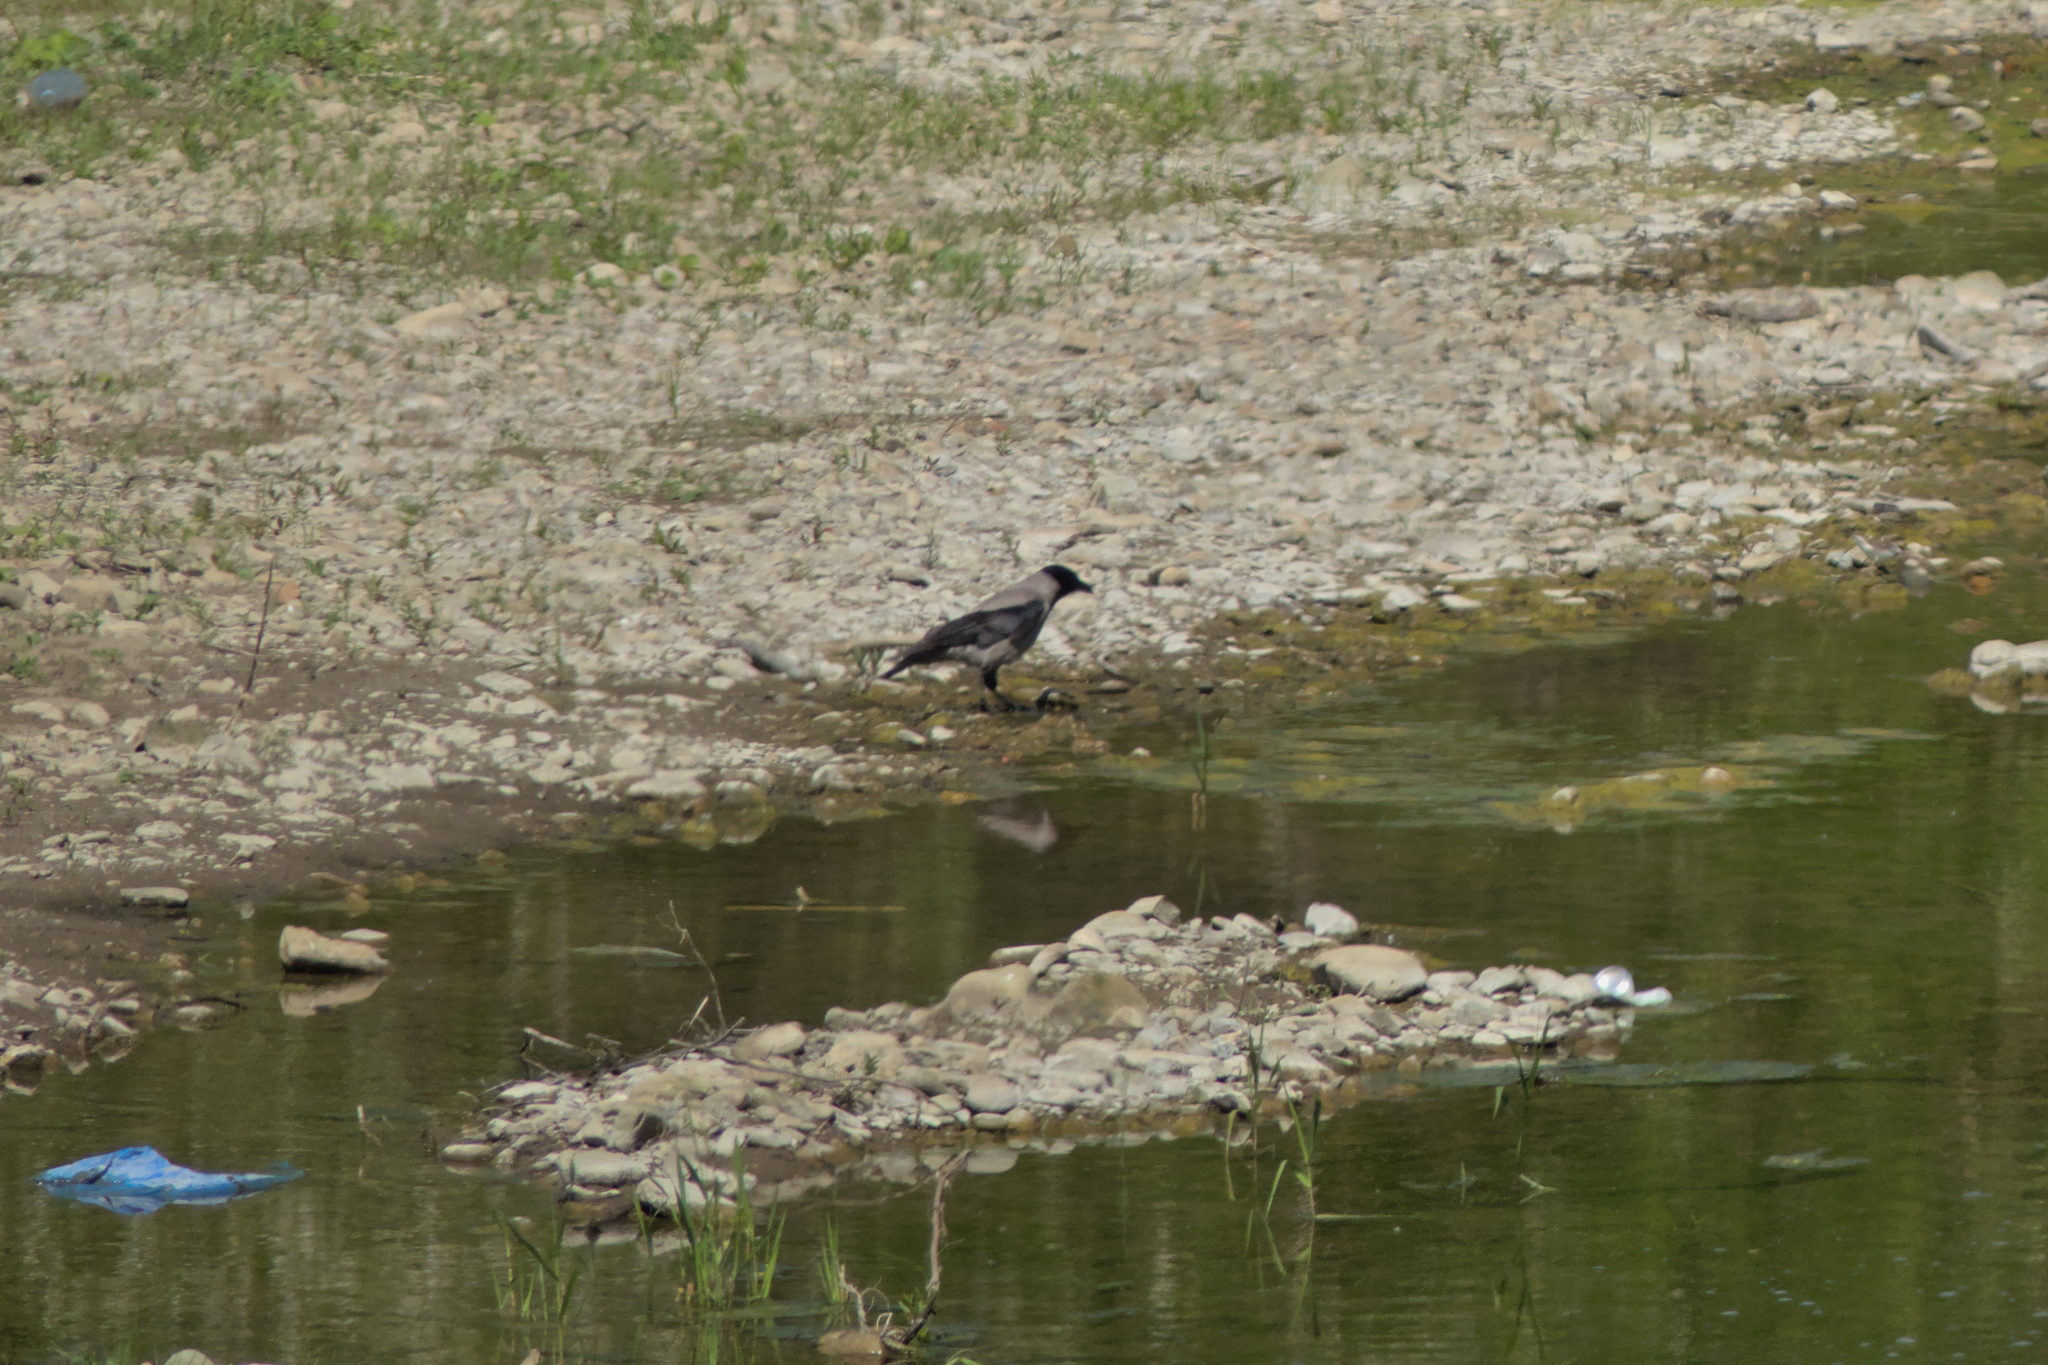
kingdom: Animalia
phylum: Chordata
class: Aves
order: Passeriformes
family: Corvidae
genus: Corvus
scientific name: Corvus cornix
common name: Hooded crow
